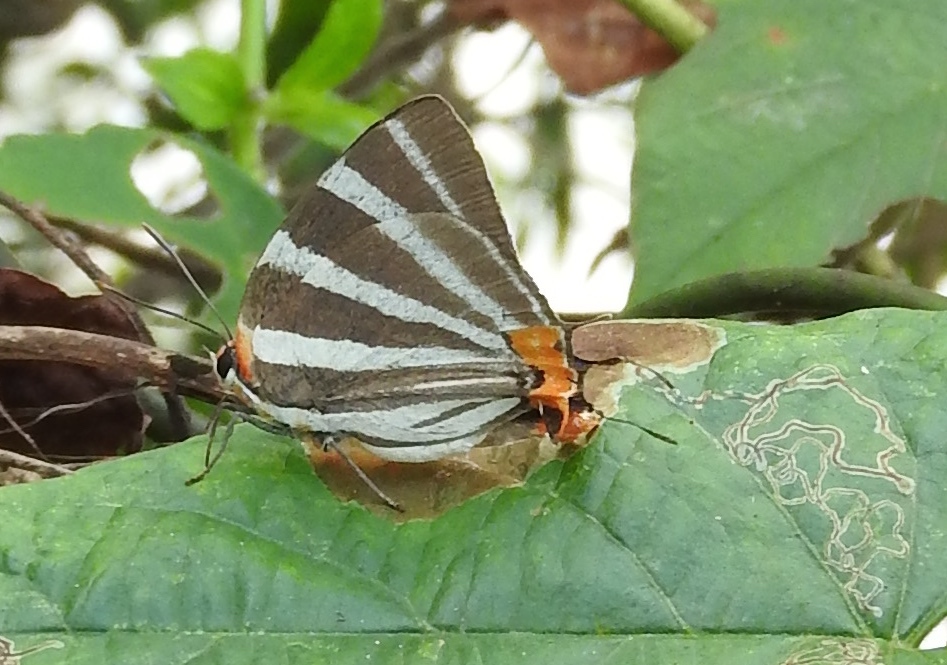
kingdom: Animalia
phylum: Arthropoda
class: Insecta
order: Lepidoptera
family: Lycaenidae
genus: Thecla
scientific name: Thecla bathildis
